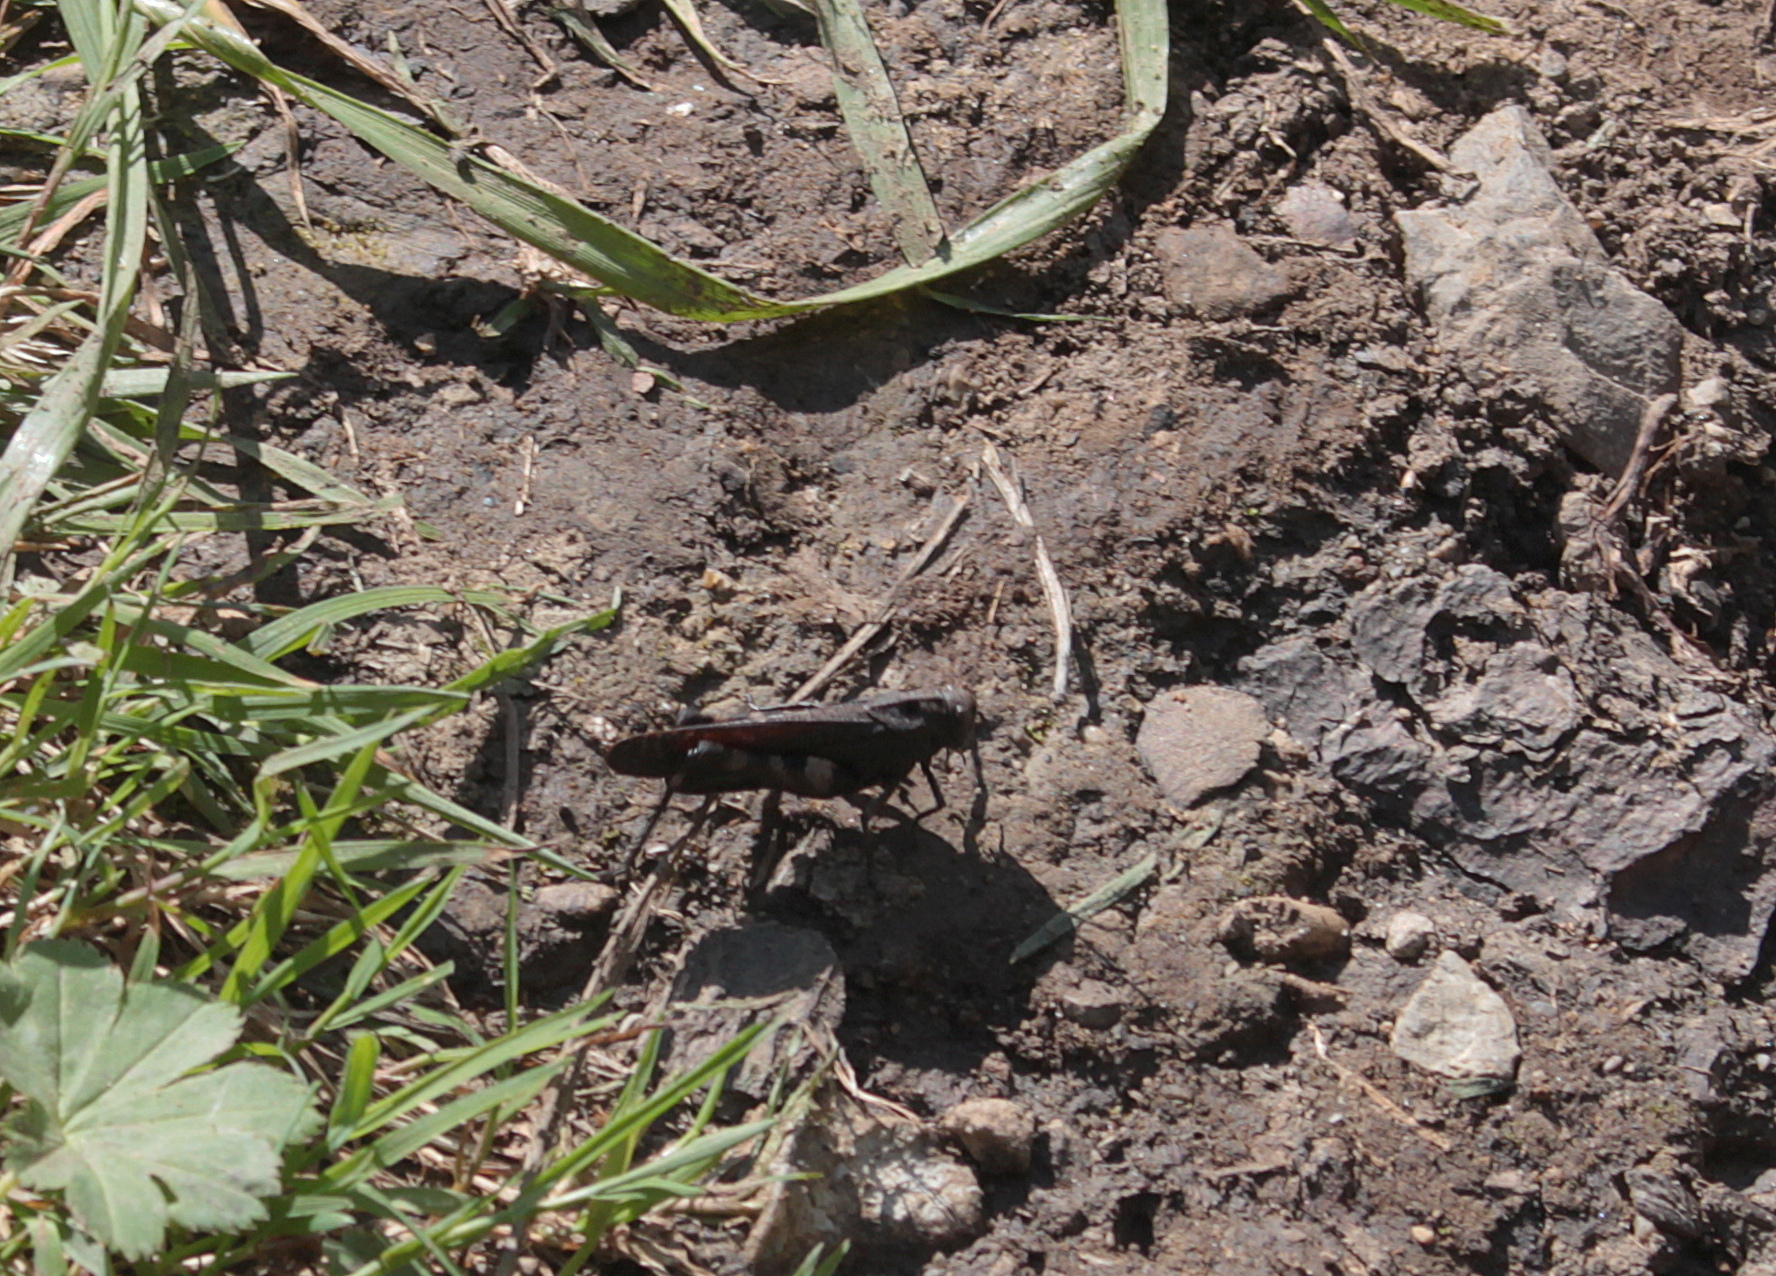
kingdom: Animalia
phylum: Arthropoda
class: Insecta
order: Orthoptera
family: Acrididae
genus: Psophus
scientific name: Psophus stridulus
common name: Rattle grasshopper
